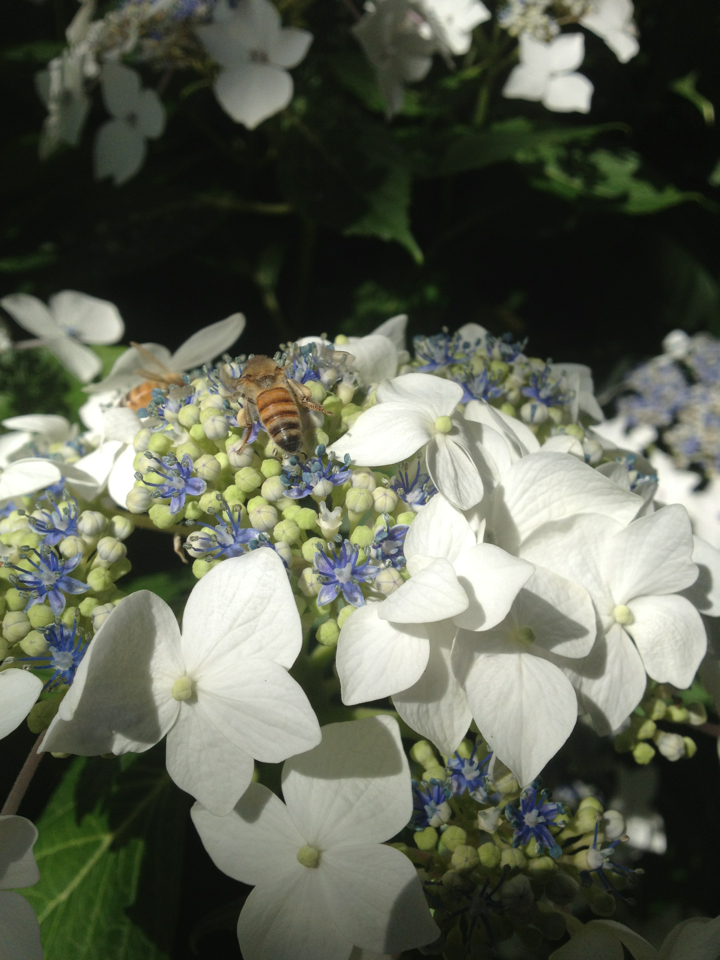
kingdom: Animalia
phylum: Arthropoda
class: Insecta
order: Hymenoptera
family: Apidae
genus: Apis
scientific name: Apis mellifera
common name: Honey bee
